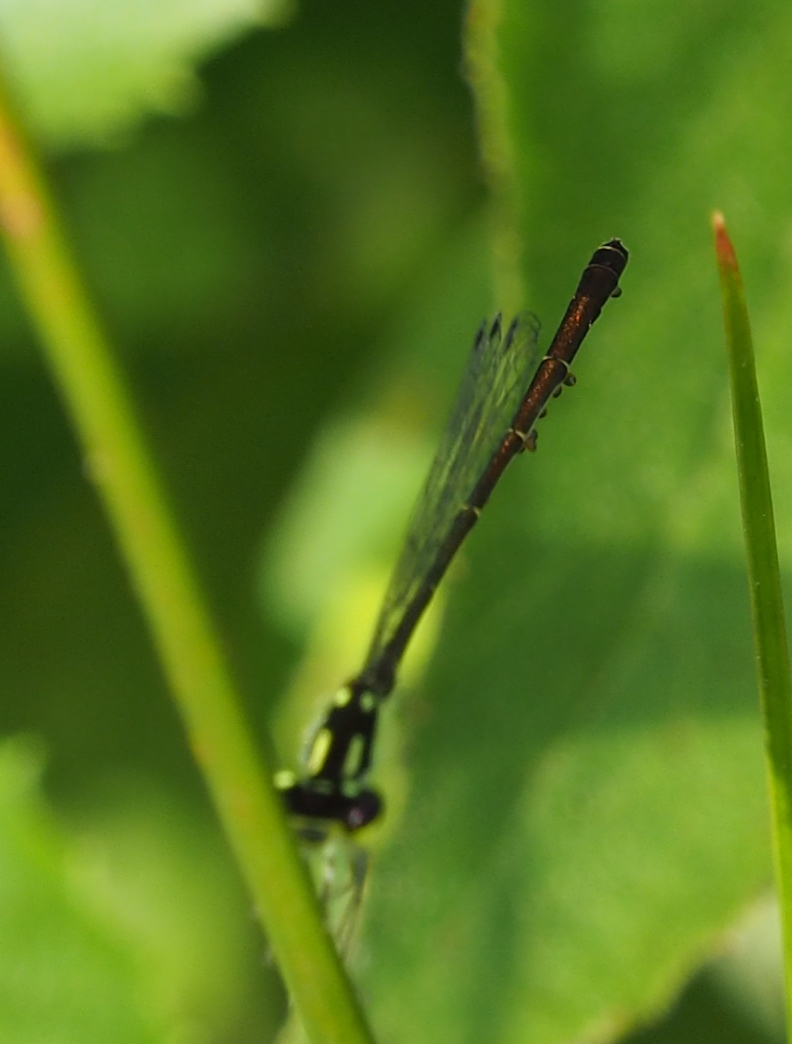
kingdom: Animalia
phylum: Arthropoda
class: Insecta
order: Odonata
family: Coenagrionidae
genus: Ischnura
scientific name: Ischnura posita
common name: Fragile forktail
